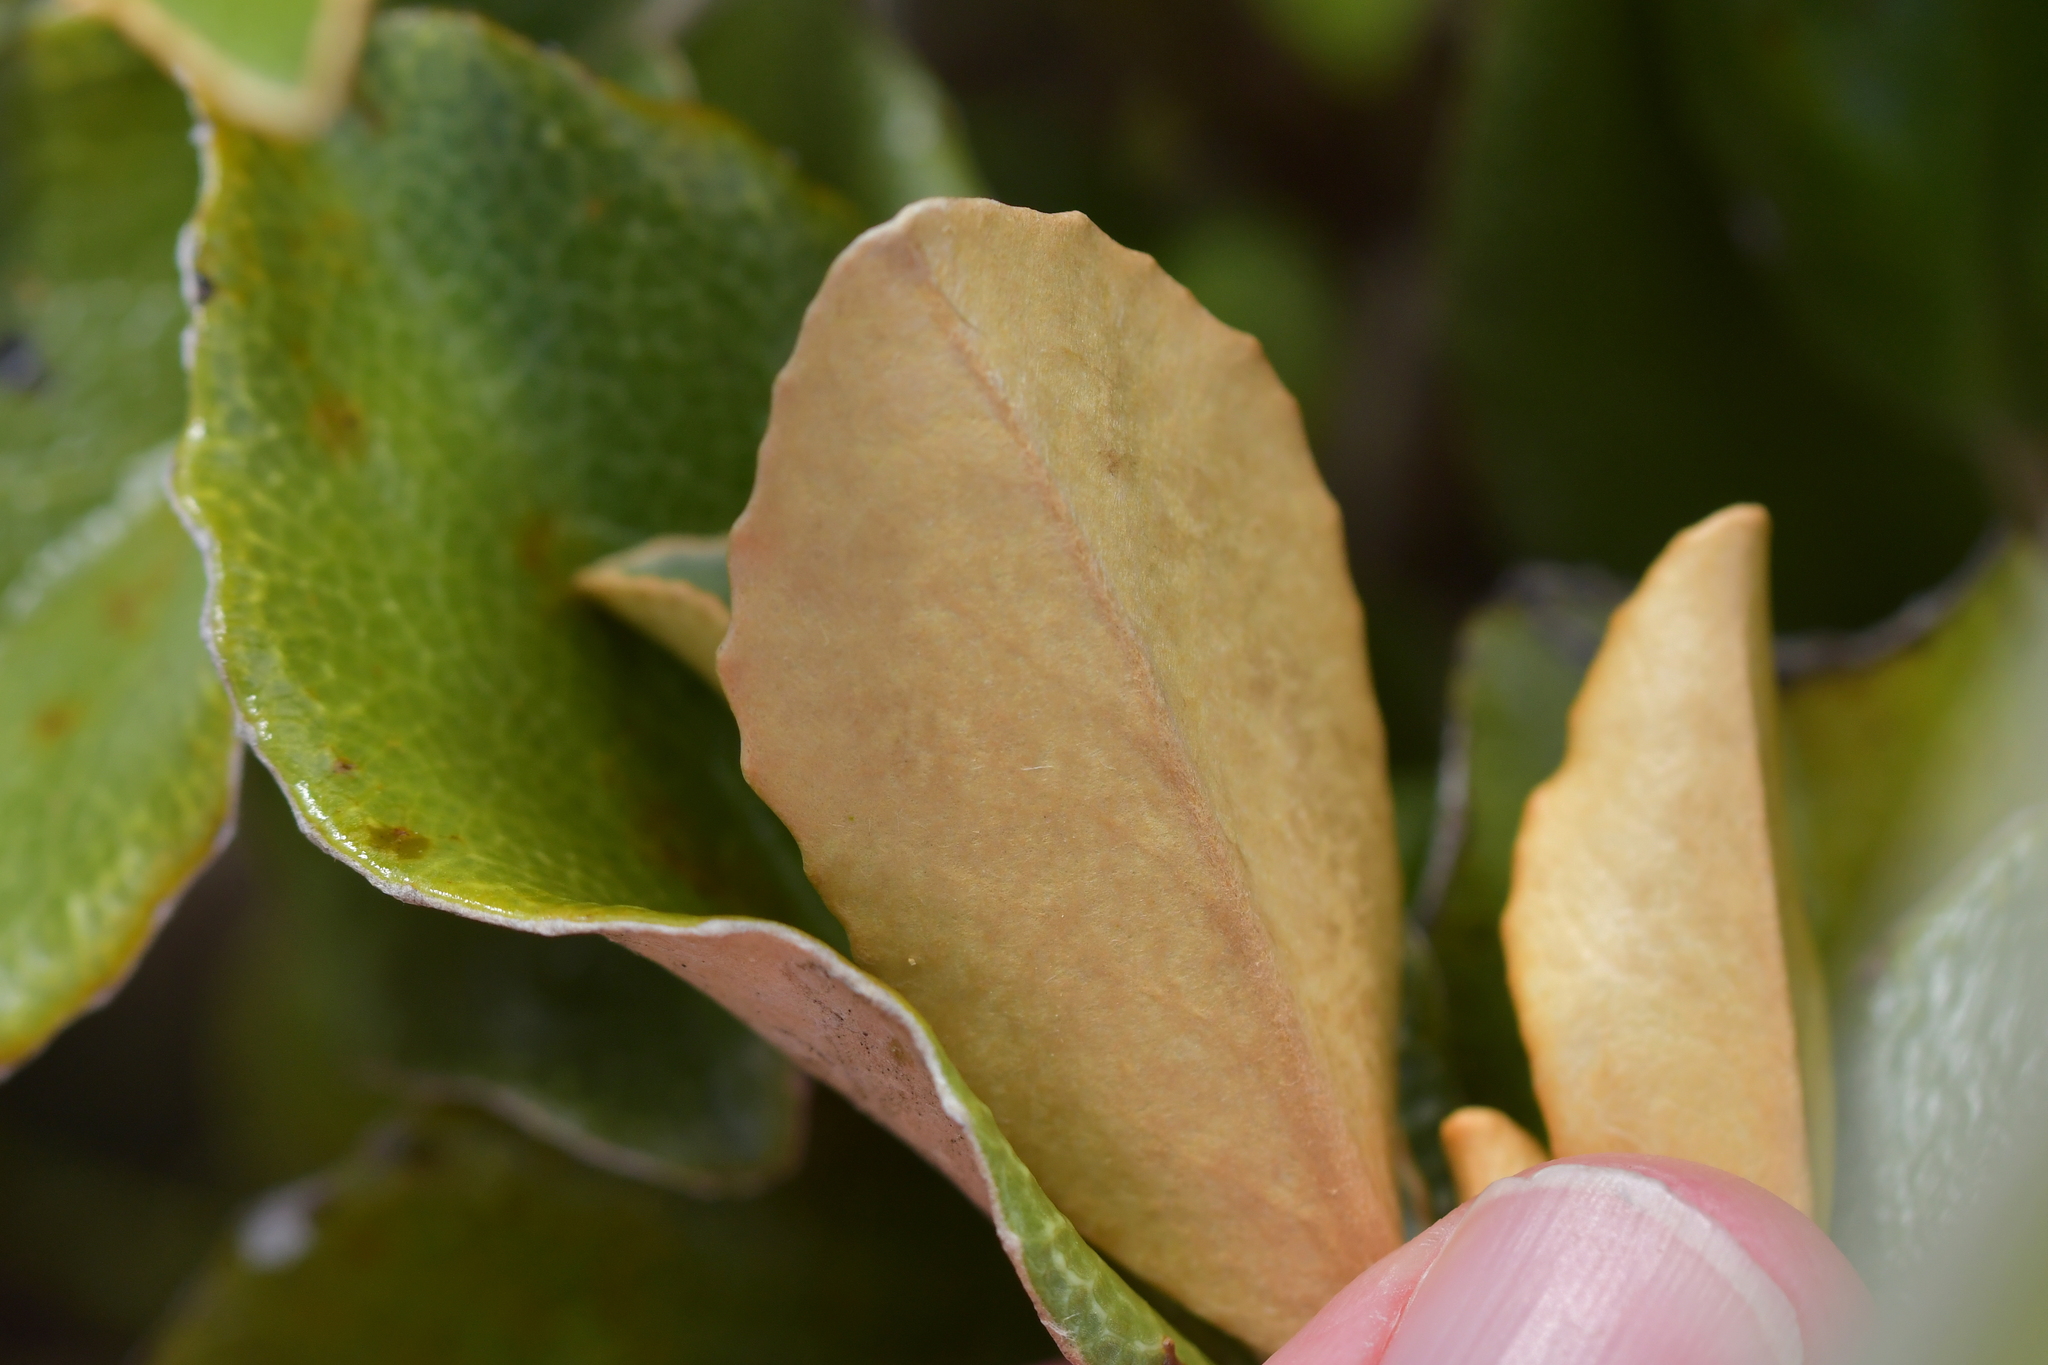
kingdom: Plantae
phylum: Tracheophyta
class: Magnoliopsida
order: Asterales
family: Asteraceae
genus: Brachyglottis
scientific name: Brachyglottis elaeagnifolia
